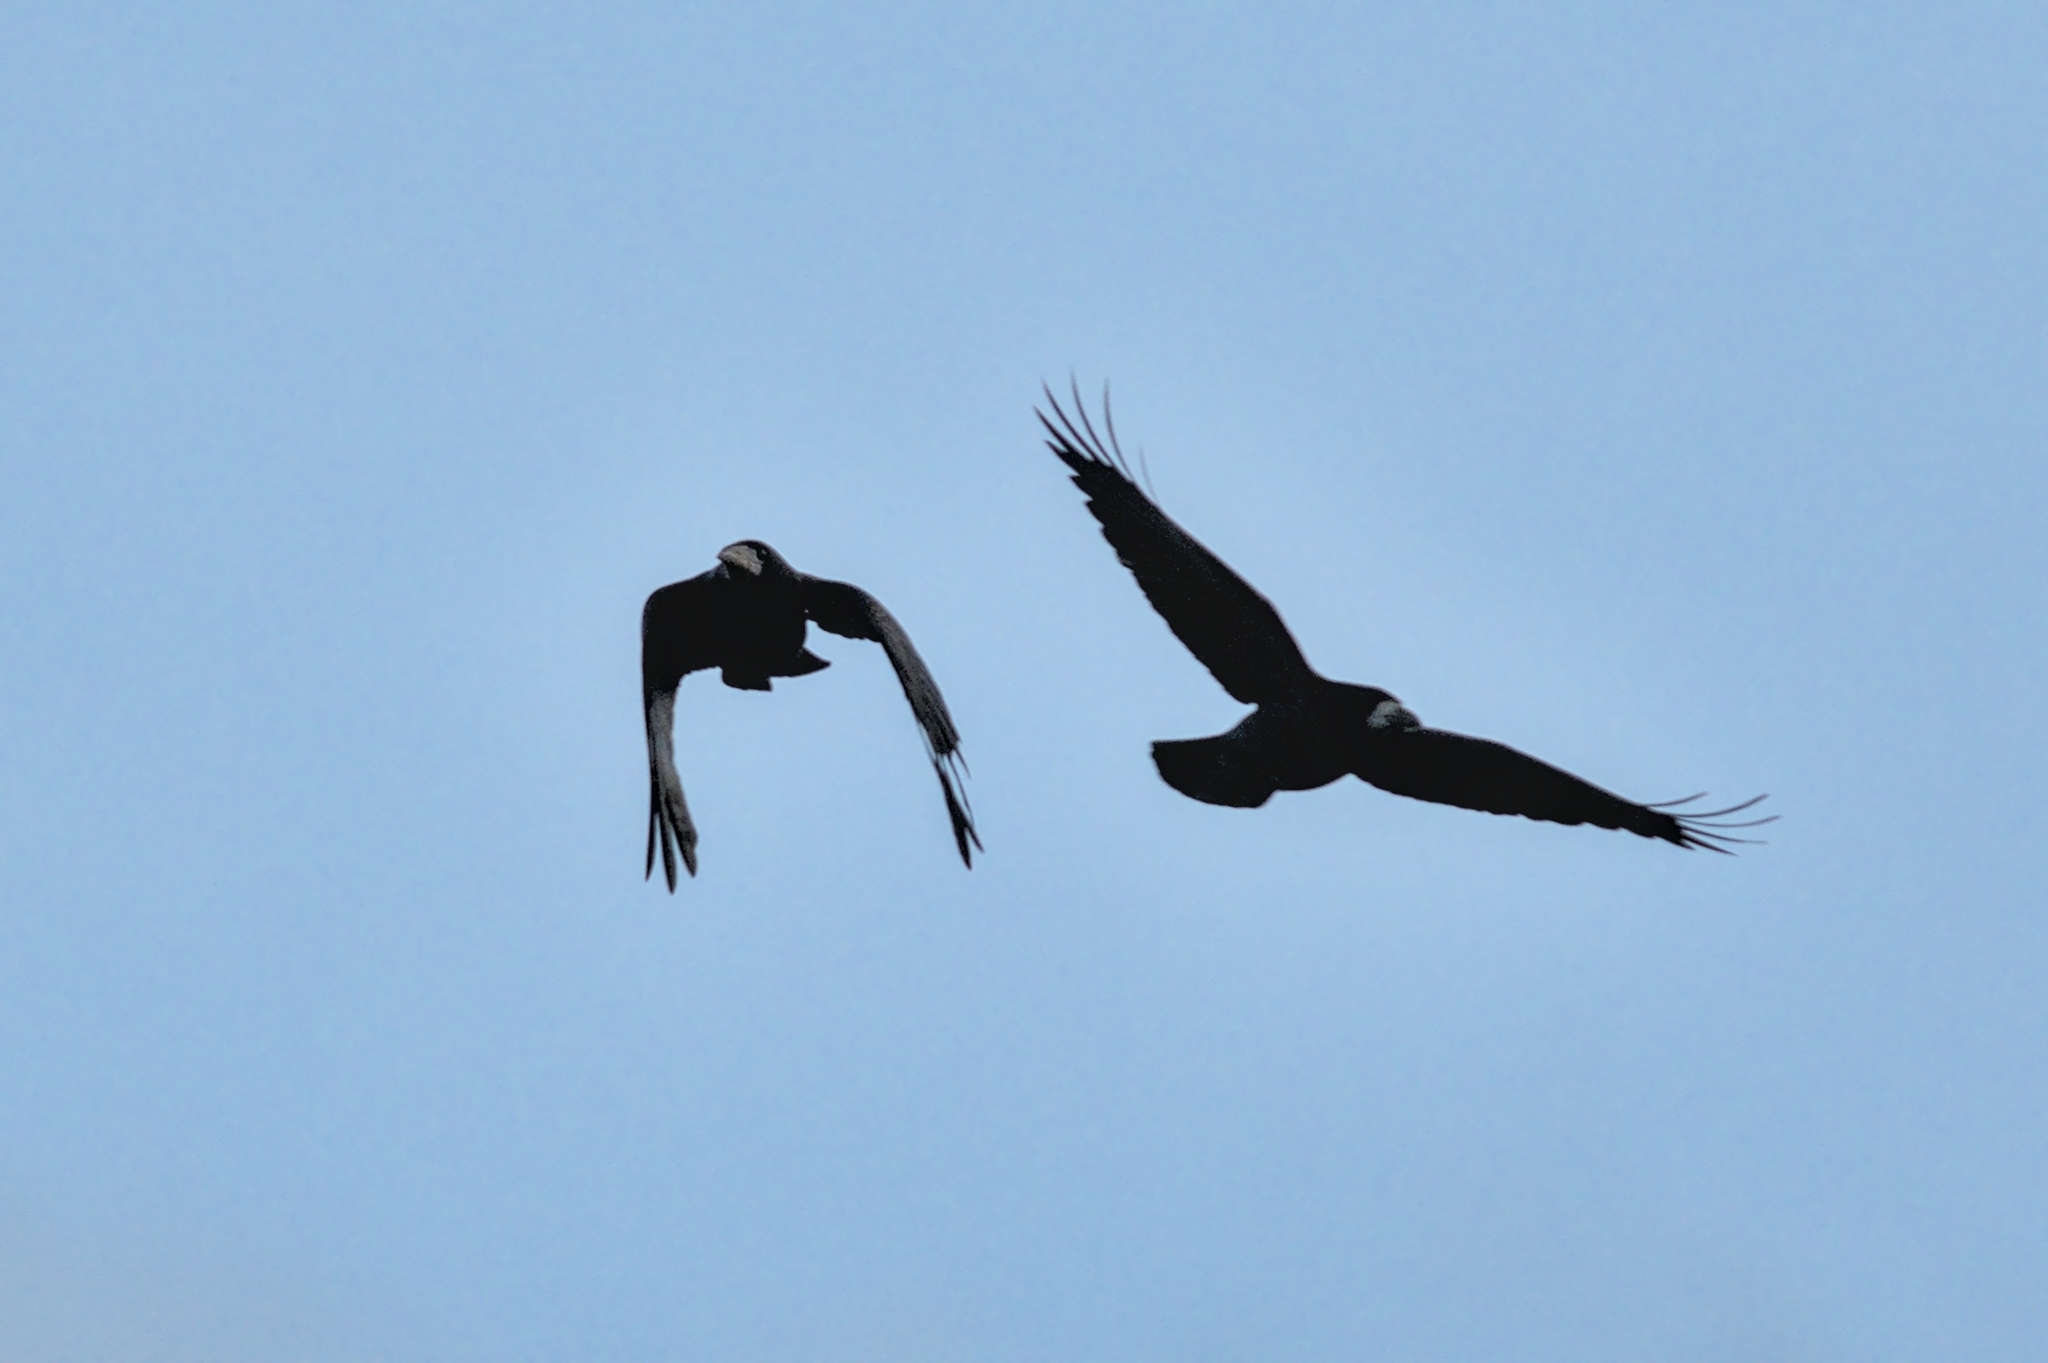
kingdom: Animalia
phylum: Chordata
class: Aves
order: Passeriformes
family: Corvidae
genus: Corvus
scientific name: Corvus frugilegus
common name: Rook
